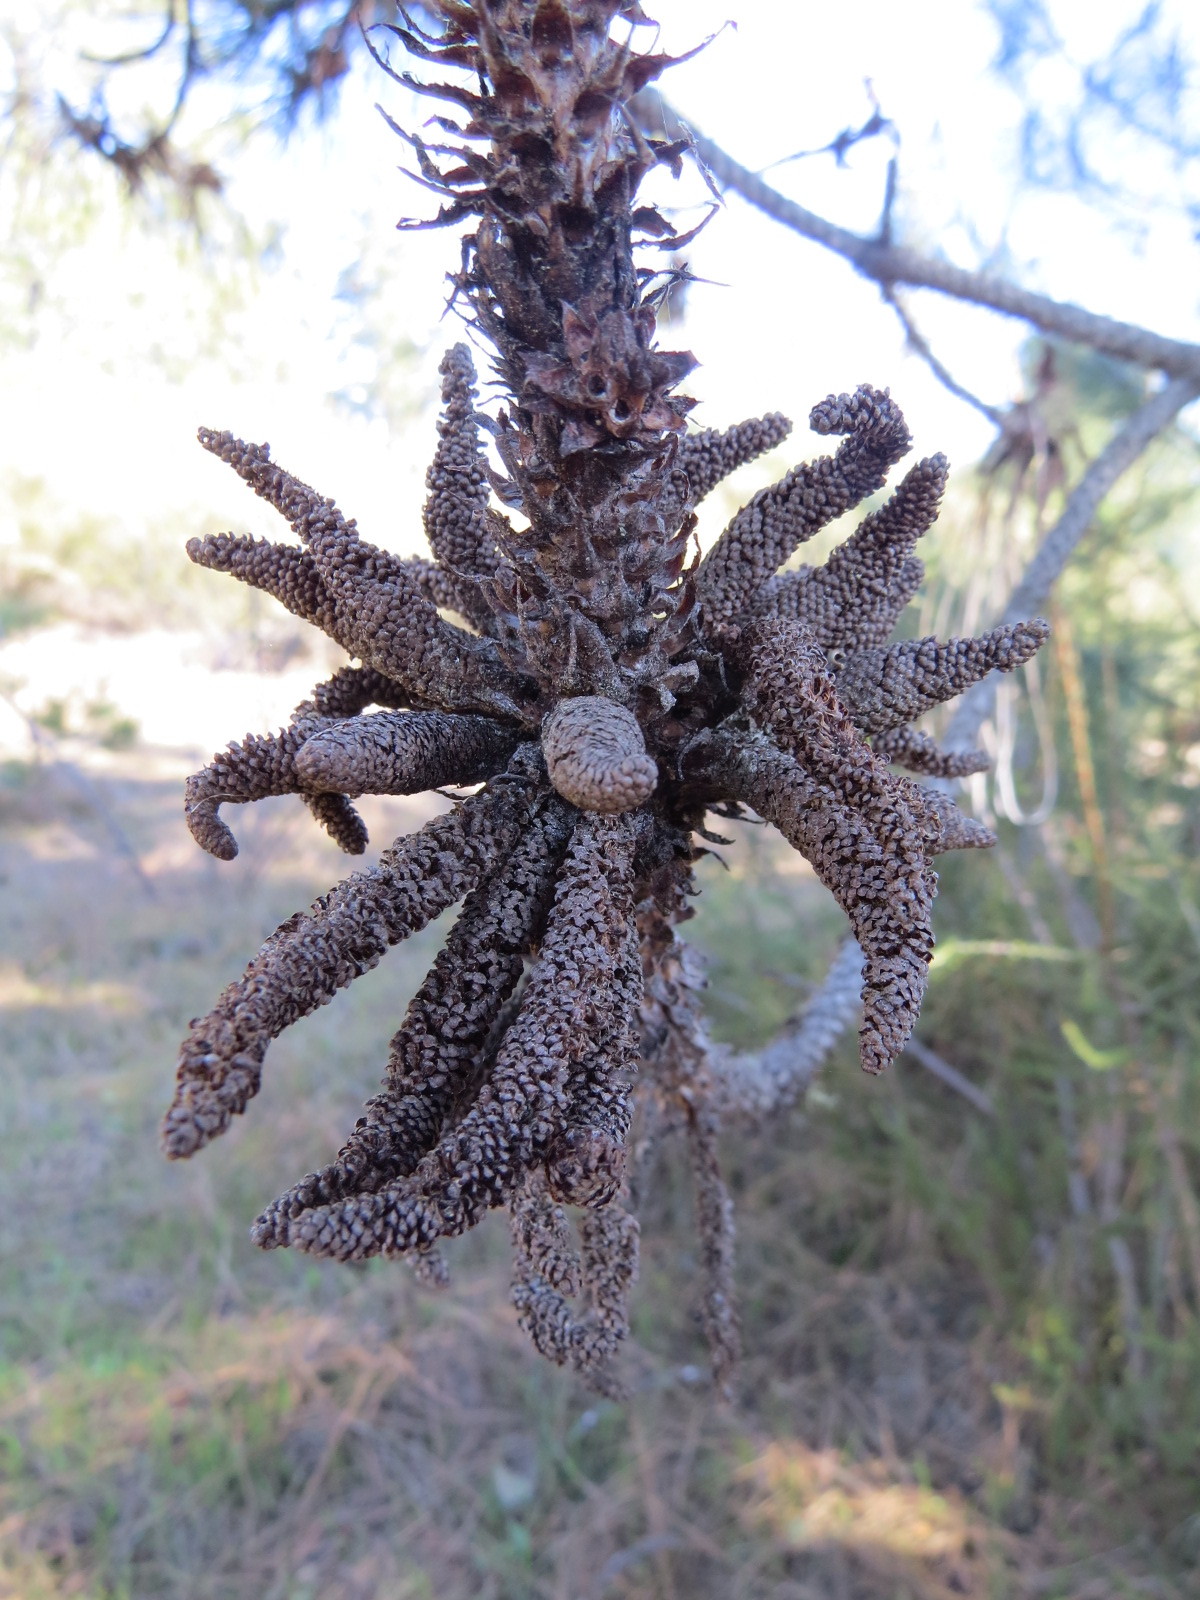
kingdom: Plantae
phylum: Tracheophyta
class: Pinopsida
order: Pinales
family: Pinaceae
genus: Pinus
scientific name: Pinus ponderosa
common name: Western yellow-pine
